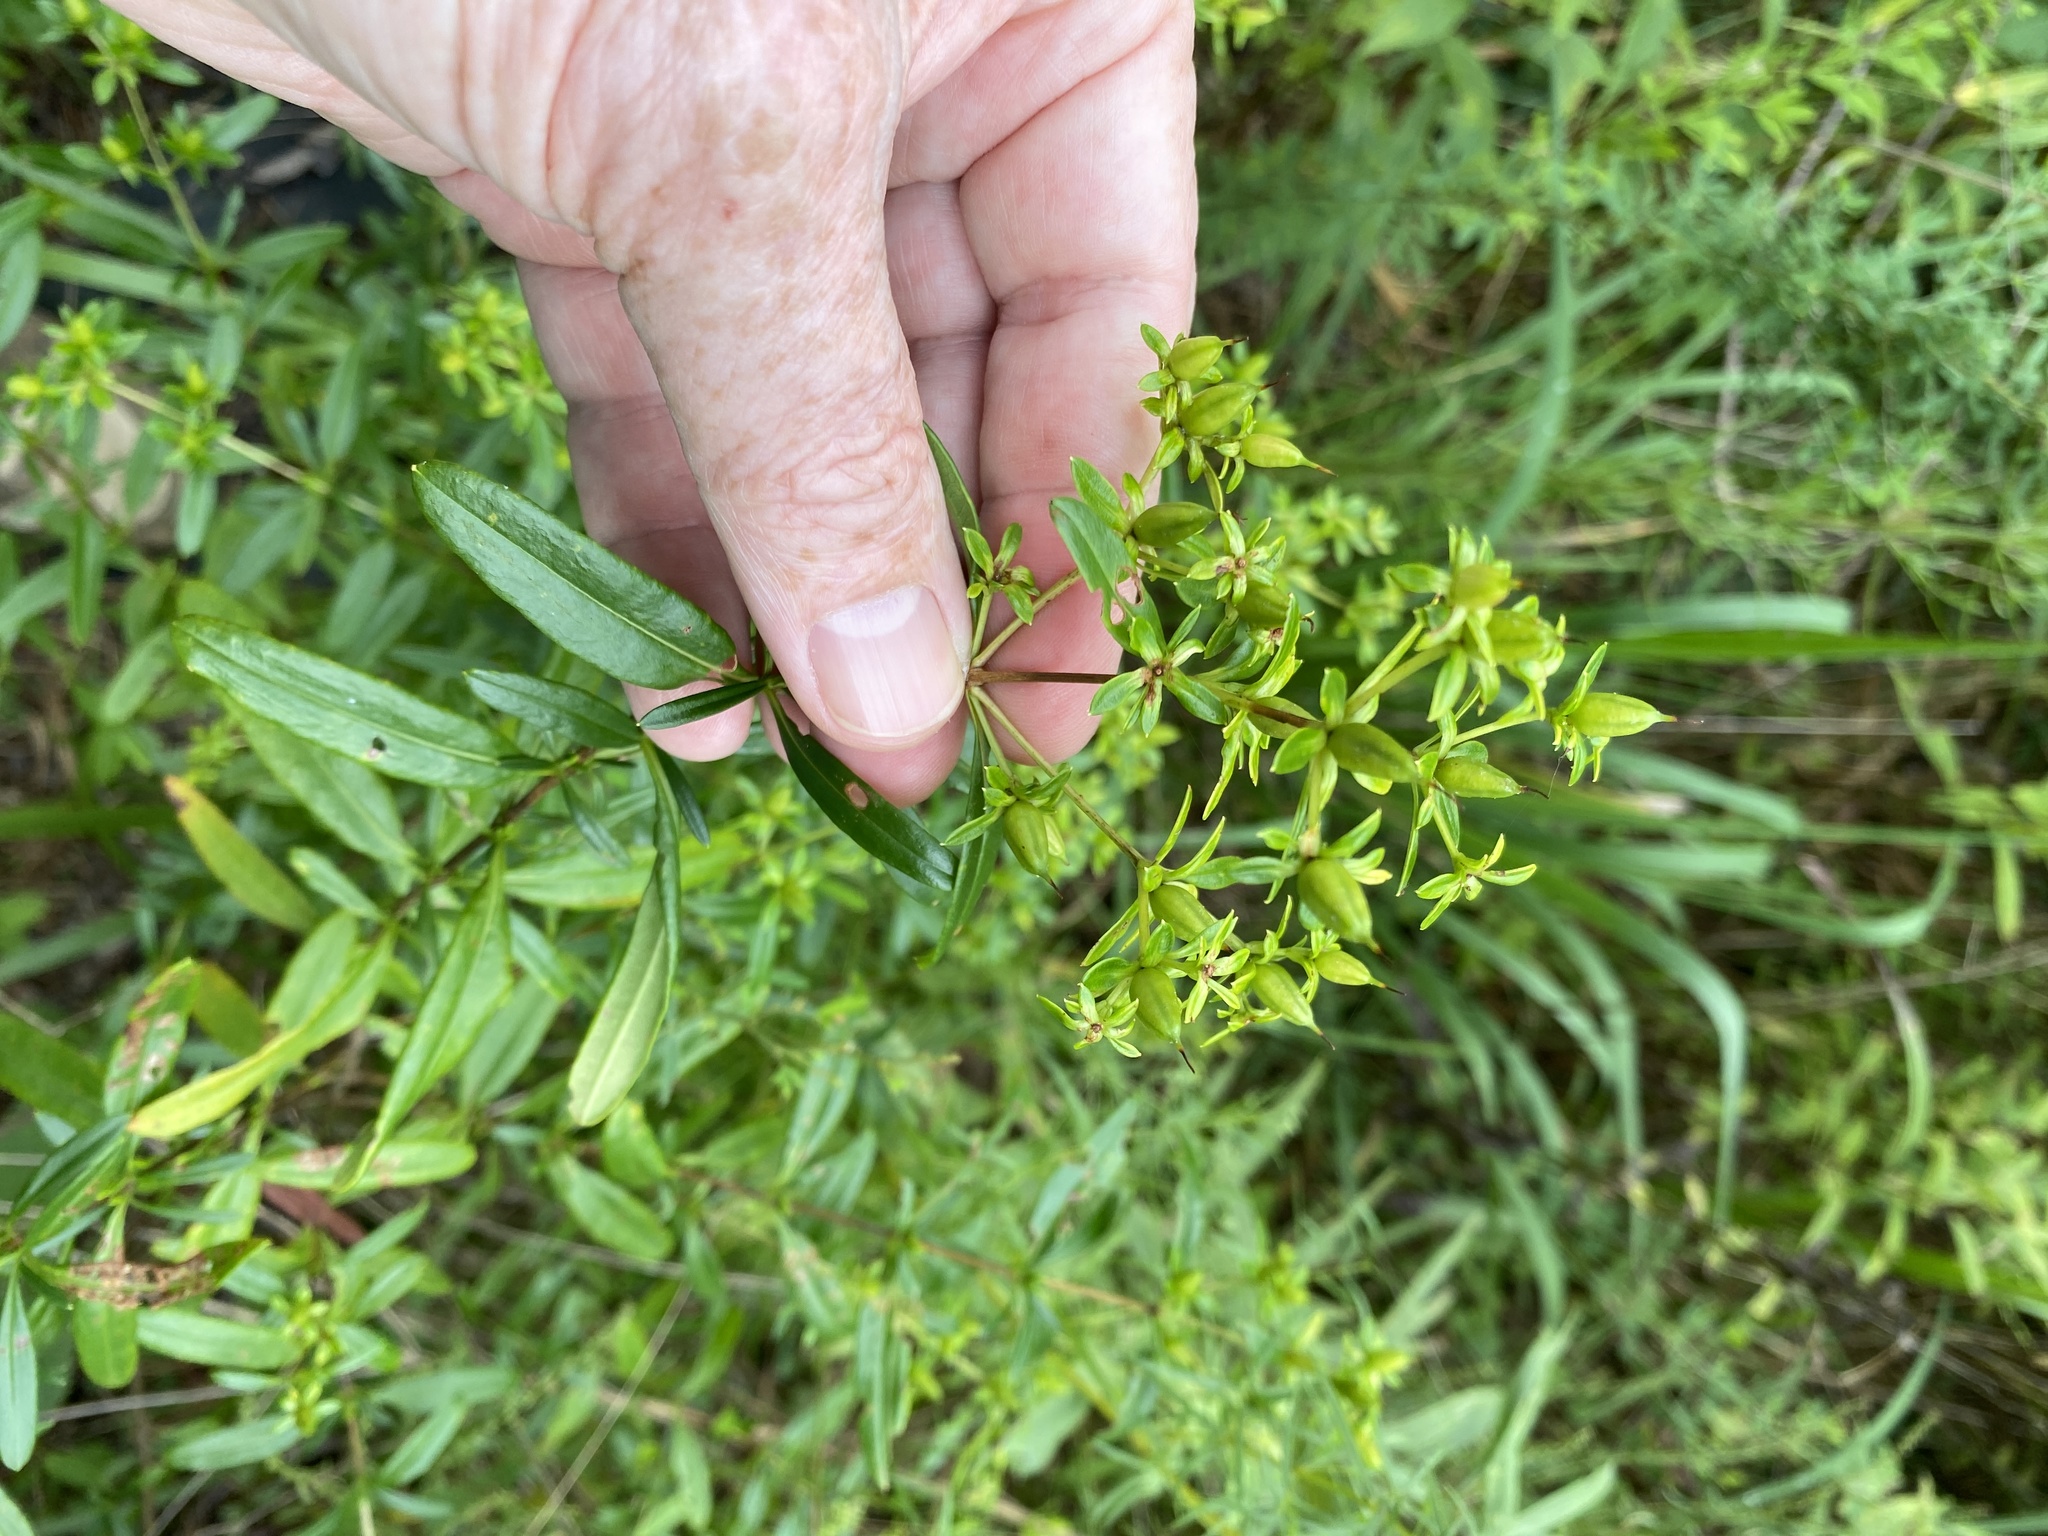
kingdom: Plantae
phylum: Tracheophyta
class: Magnoliopsida
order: Malpighiales
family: Hypericaceae
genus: Hypericum
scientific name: Hypericum prolificum
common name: Shrubby st. john's-wort
